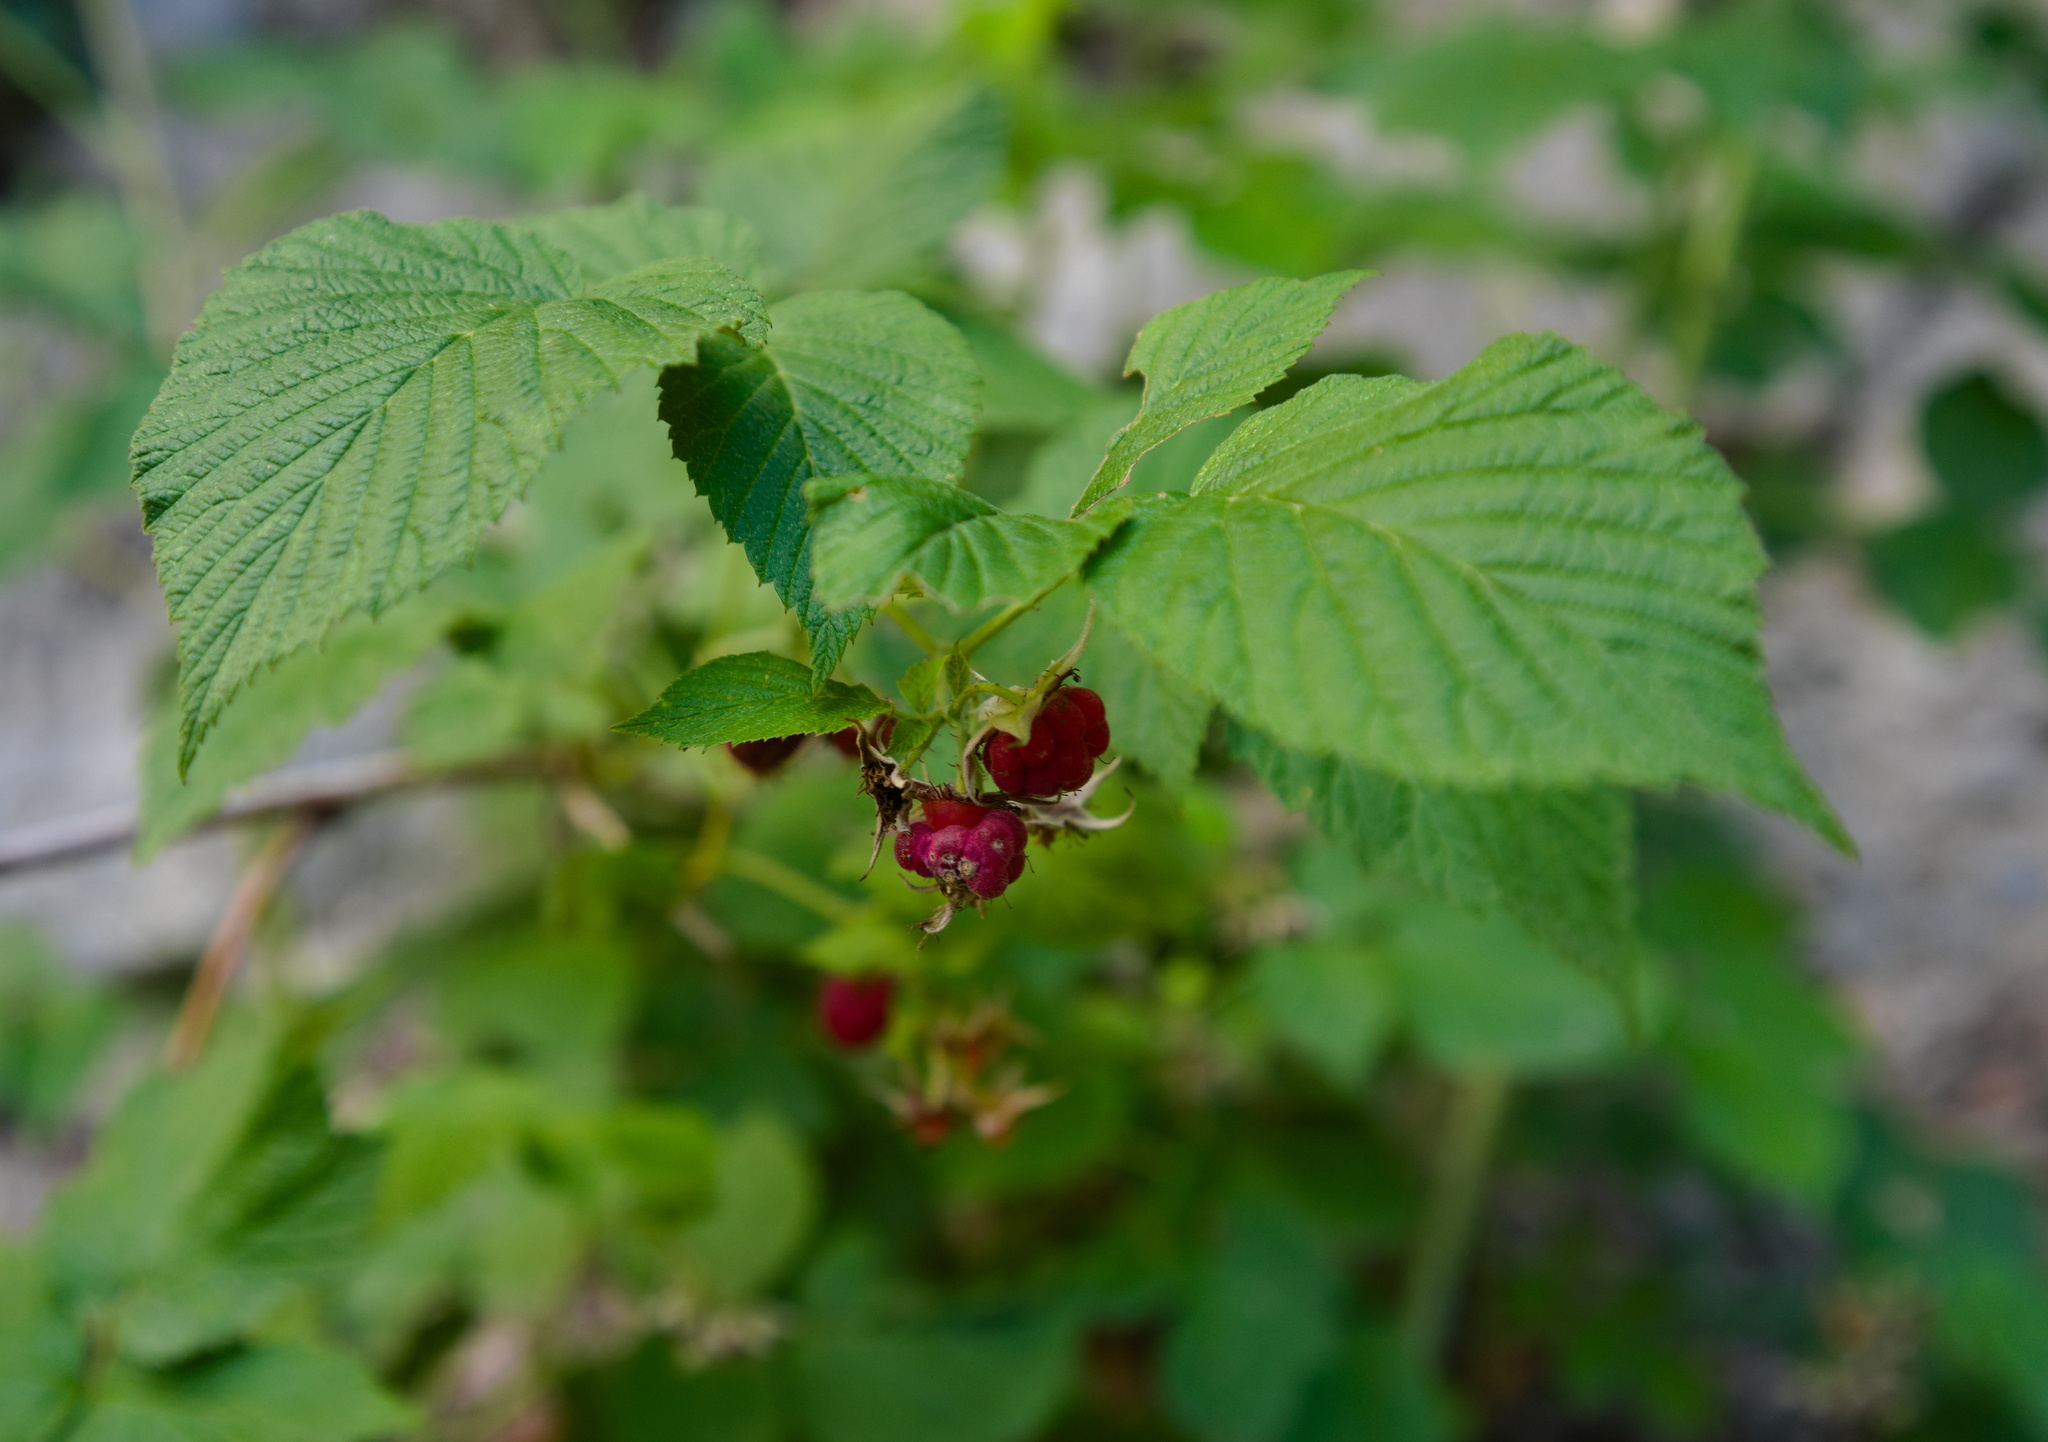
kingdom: Plantae
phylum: Tracheophyta
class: Magnoliopsida
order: Rosales
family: Rosaceae
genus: Rubus
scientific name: Rubus idaeus
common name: Raspberry
